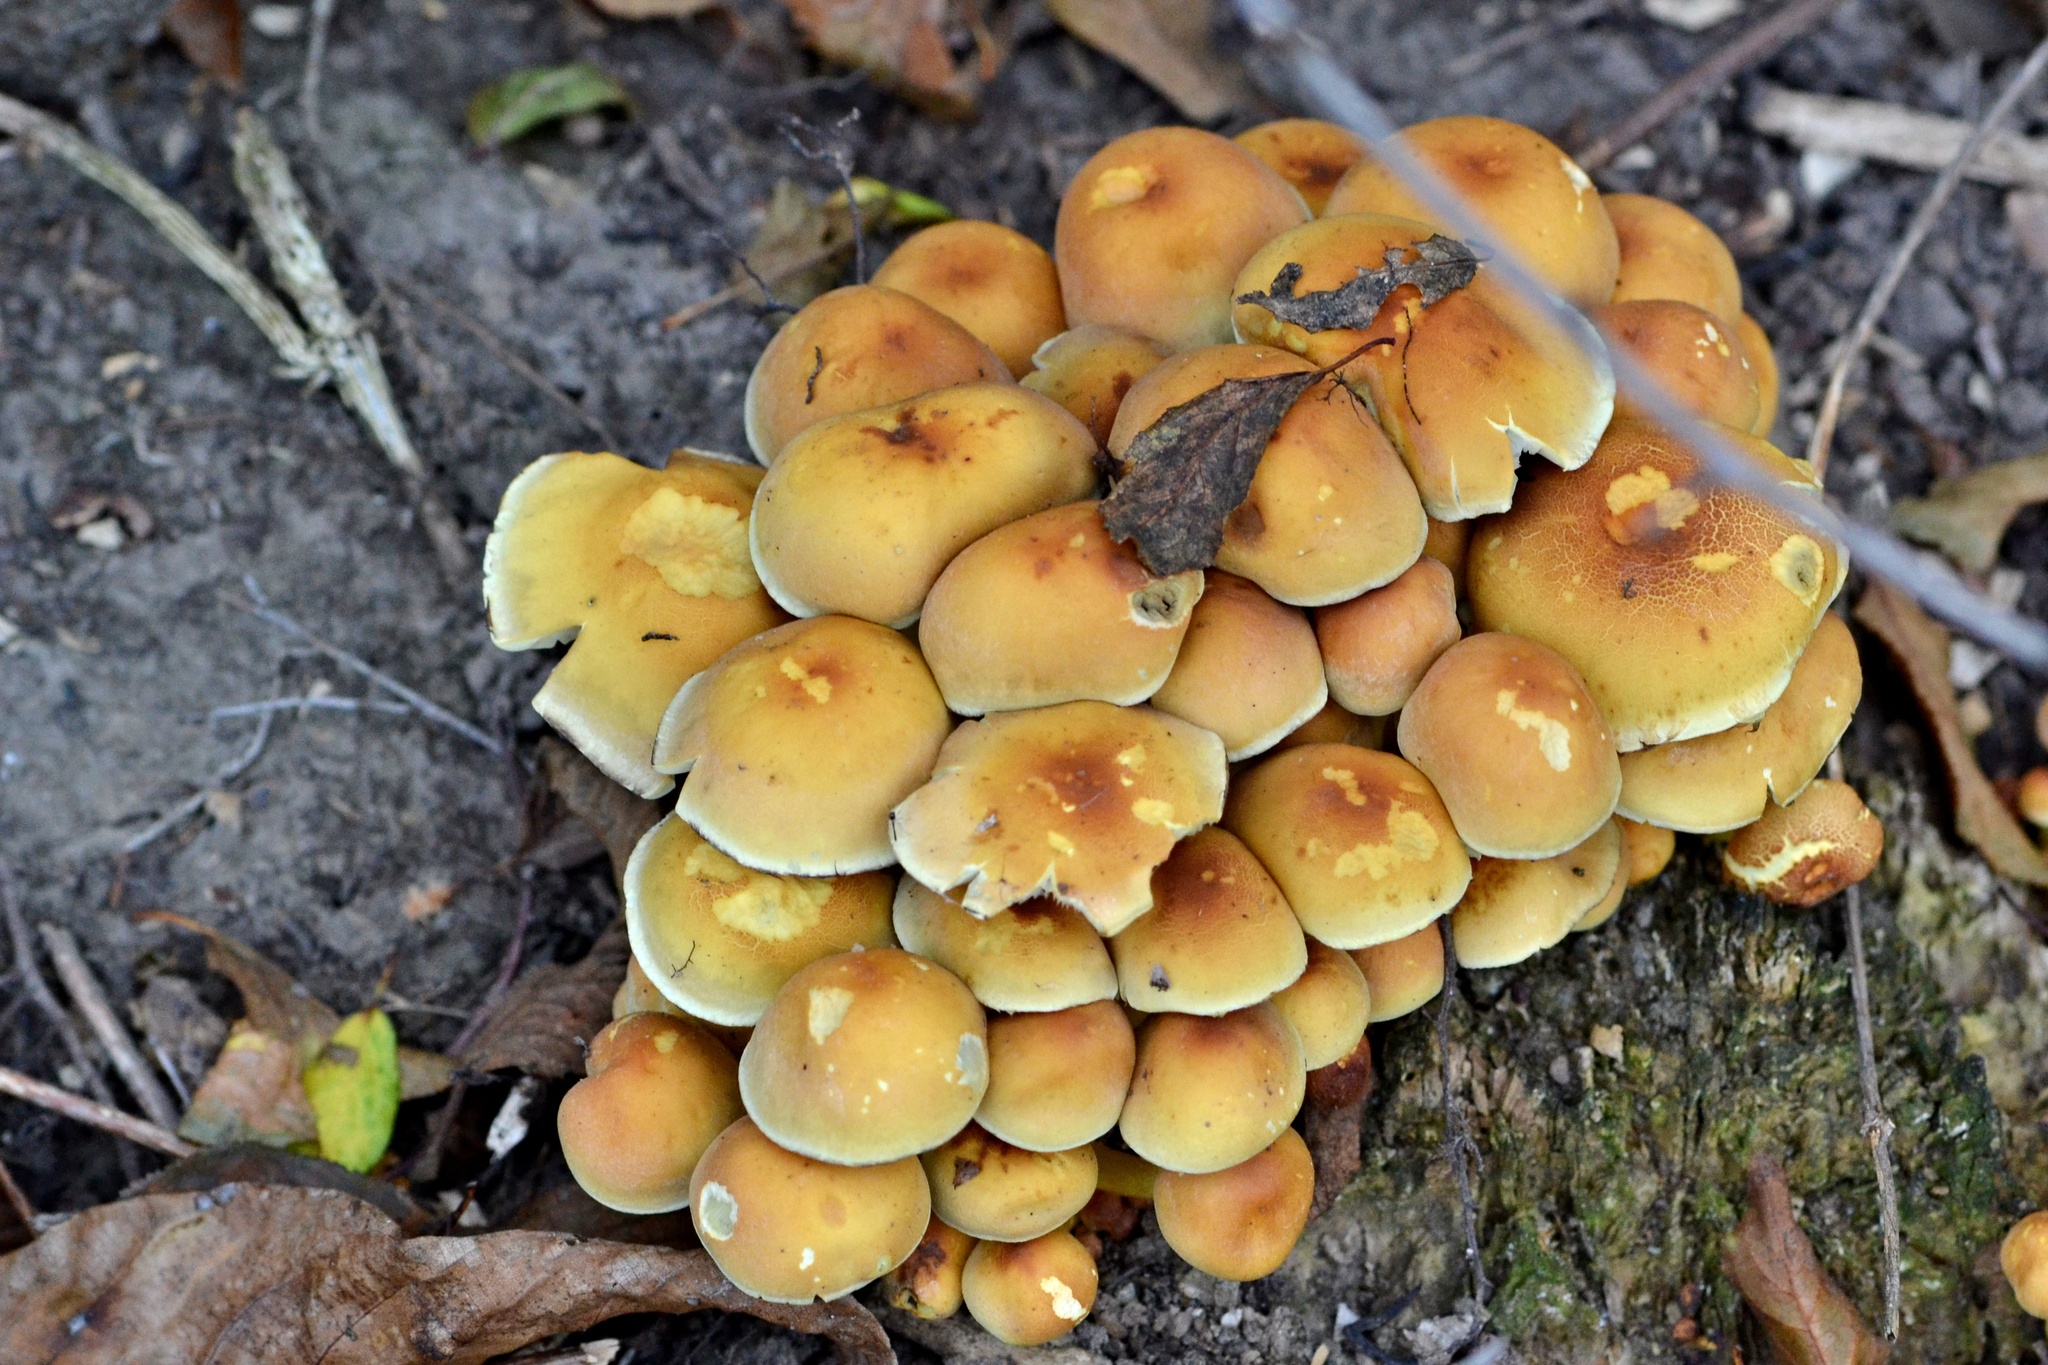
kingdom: Fungi
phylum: Basidiomycota
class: Agaricomycetes
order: Agaricales
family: Strophariaceae
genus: Hypholoma
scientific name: Hypholoma fasciculare
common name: Sulphur tuft
